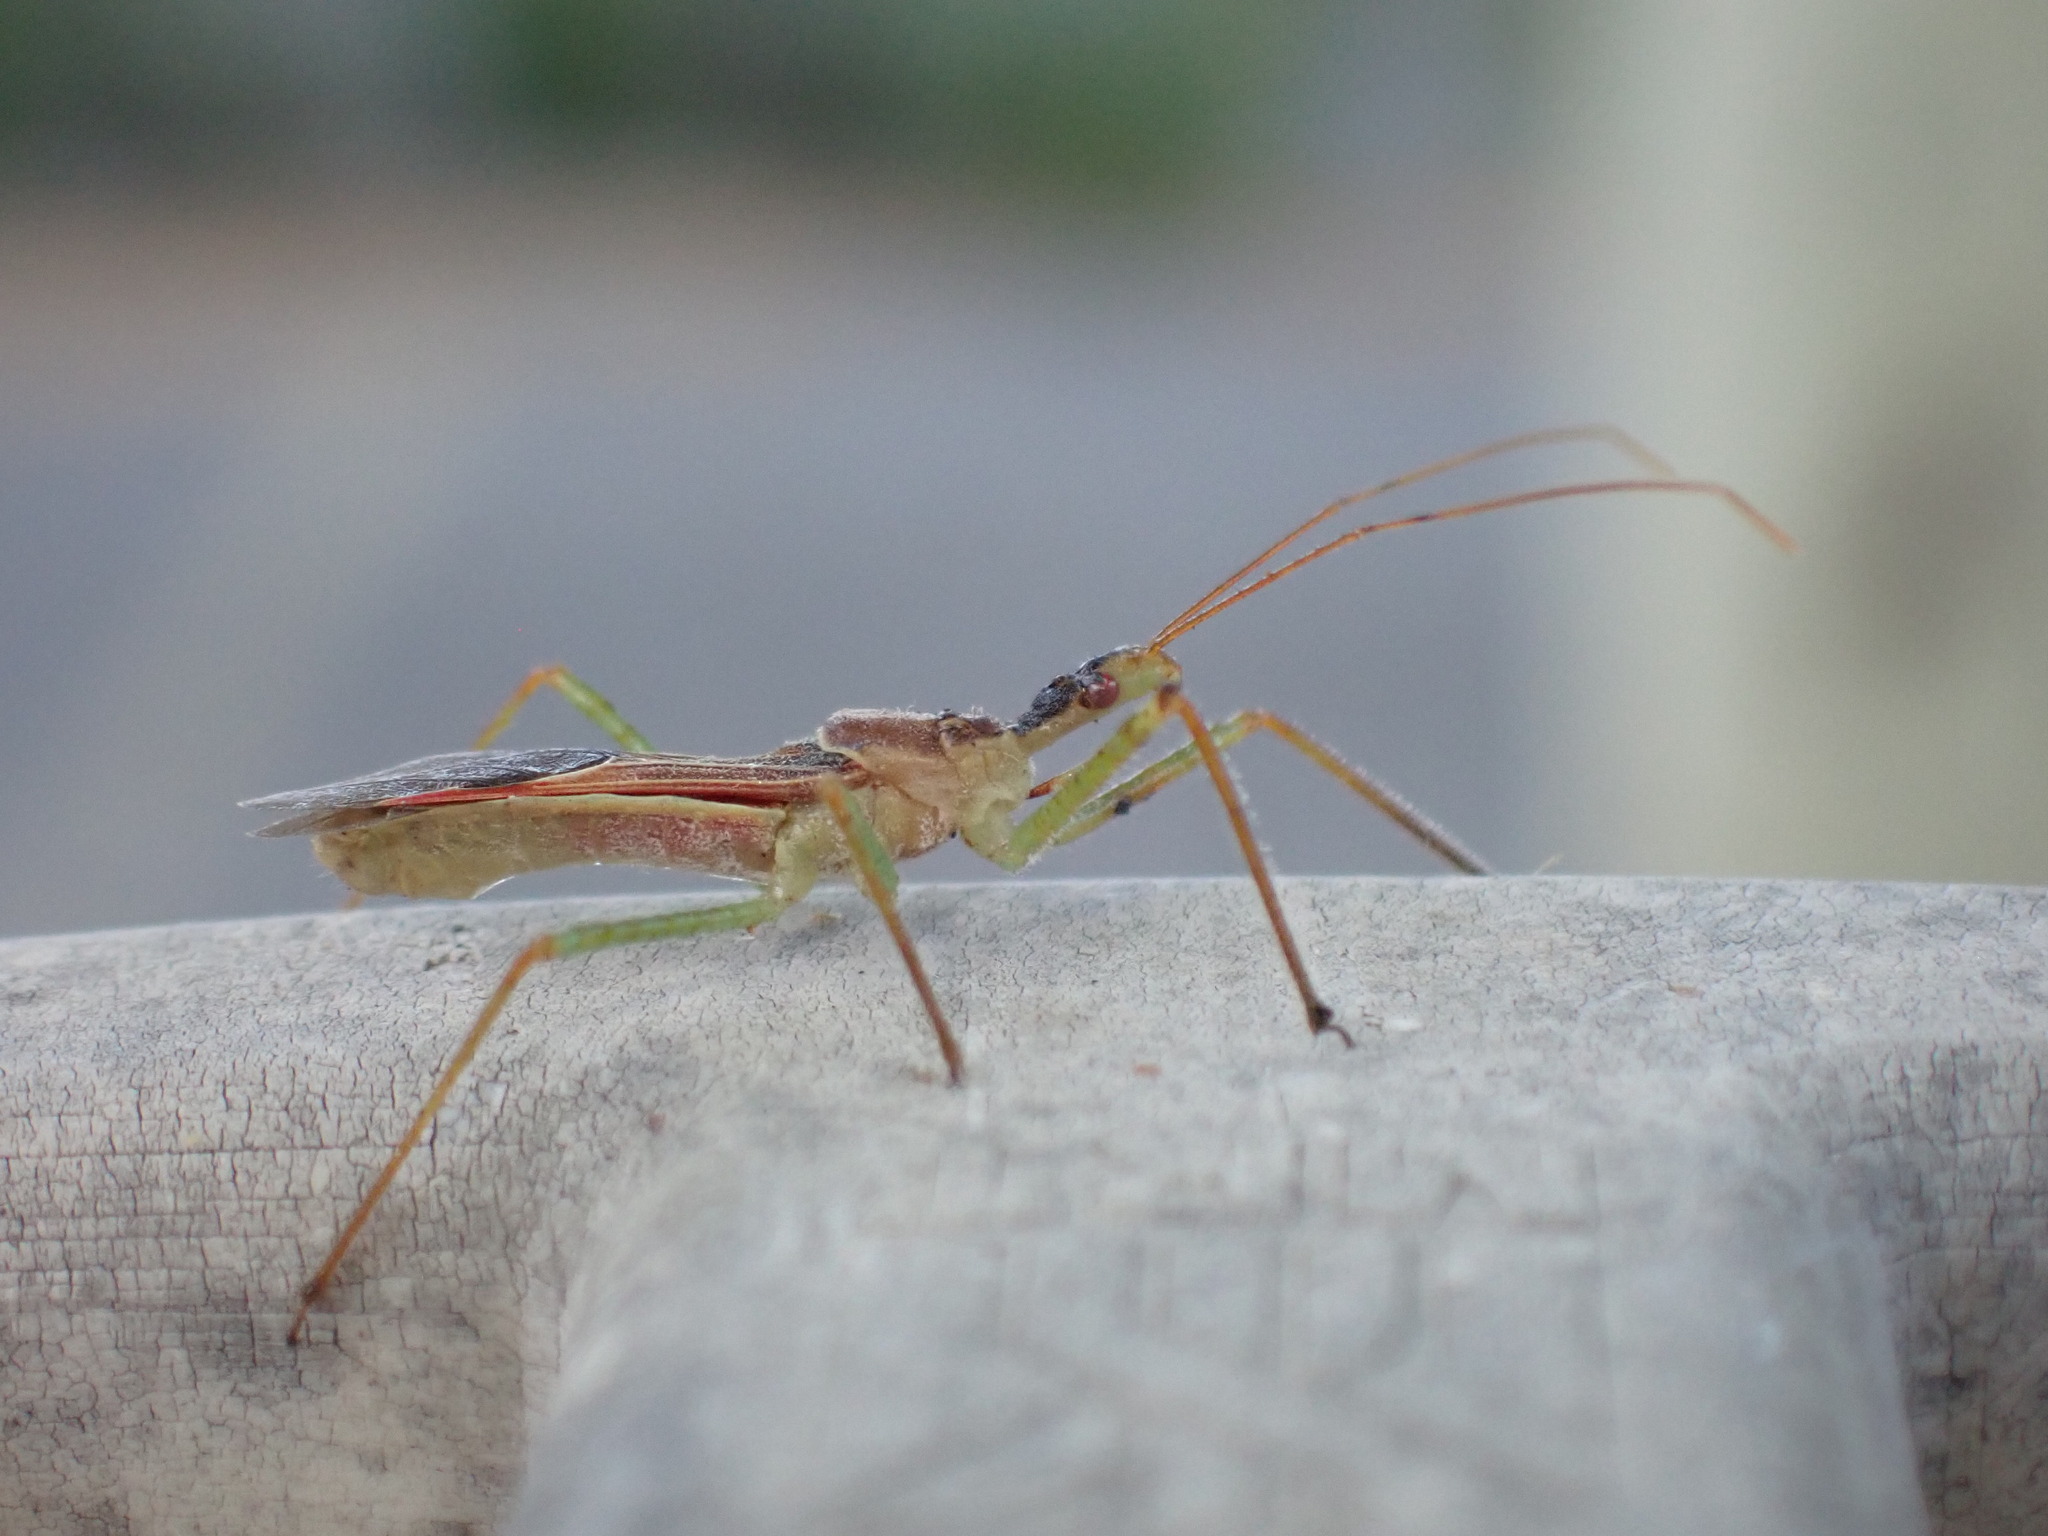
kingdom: Animalia
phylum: Arthropoda
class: Insecta
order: Hemiptera
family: Reduviidae
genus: Zelus
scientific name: Zelus renardii
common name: Assassin bug
